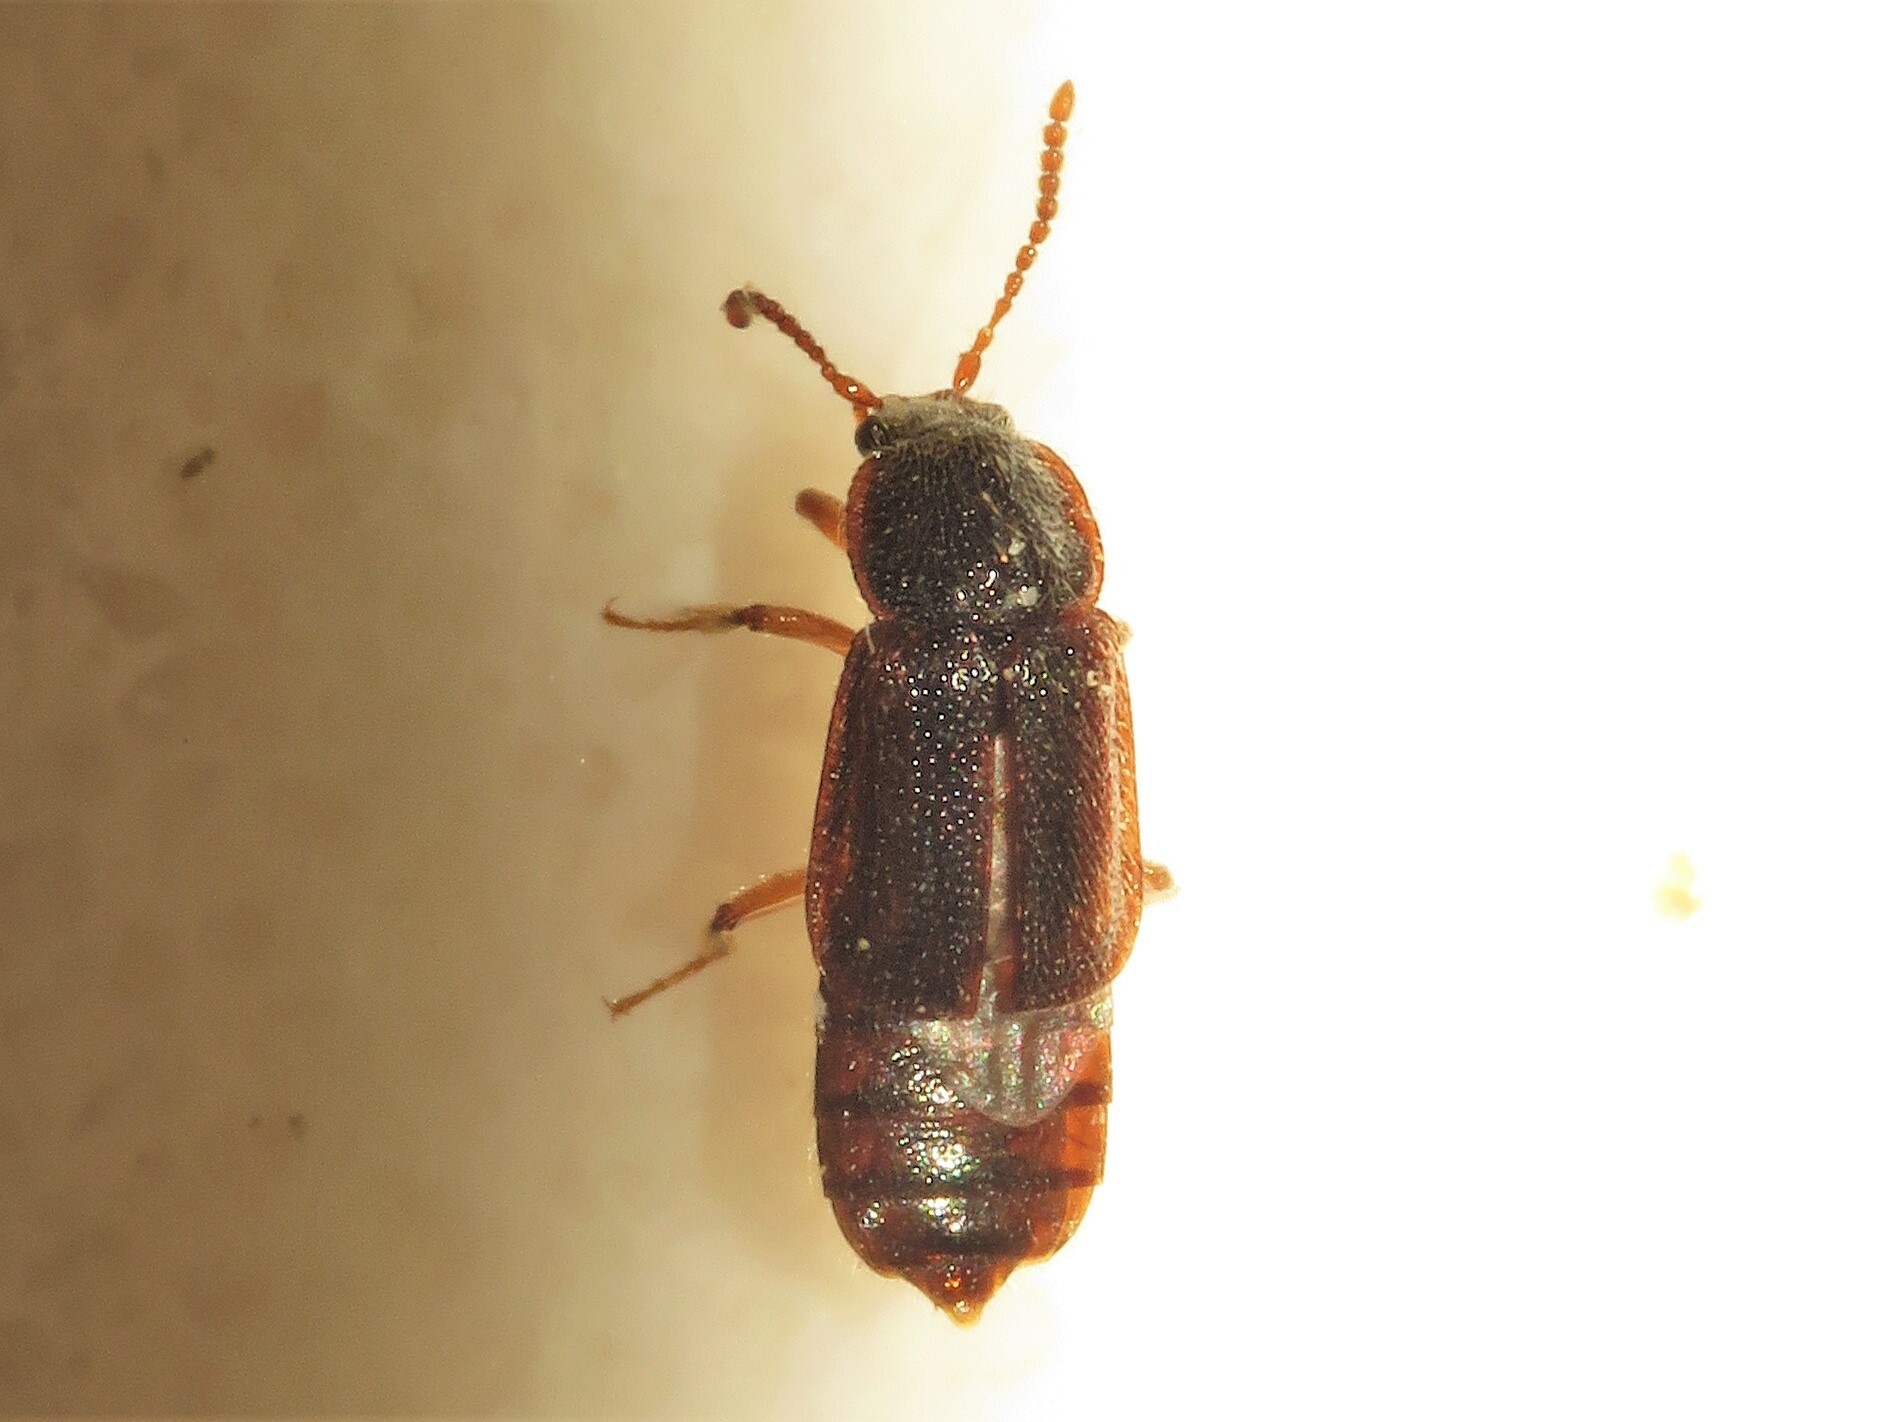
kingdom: Animalia
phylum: Arthropoda
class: Insecta
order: Coleoptera
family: Staphylinidae
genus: Acidota
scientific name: Acidota subcarinata
